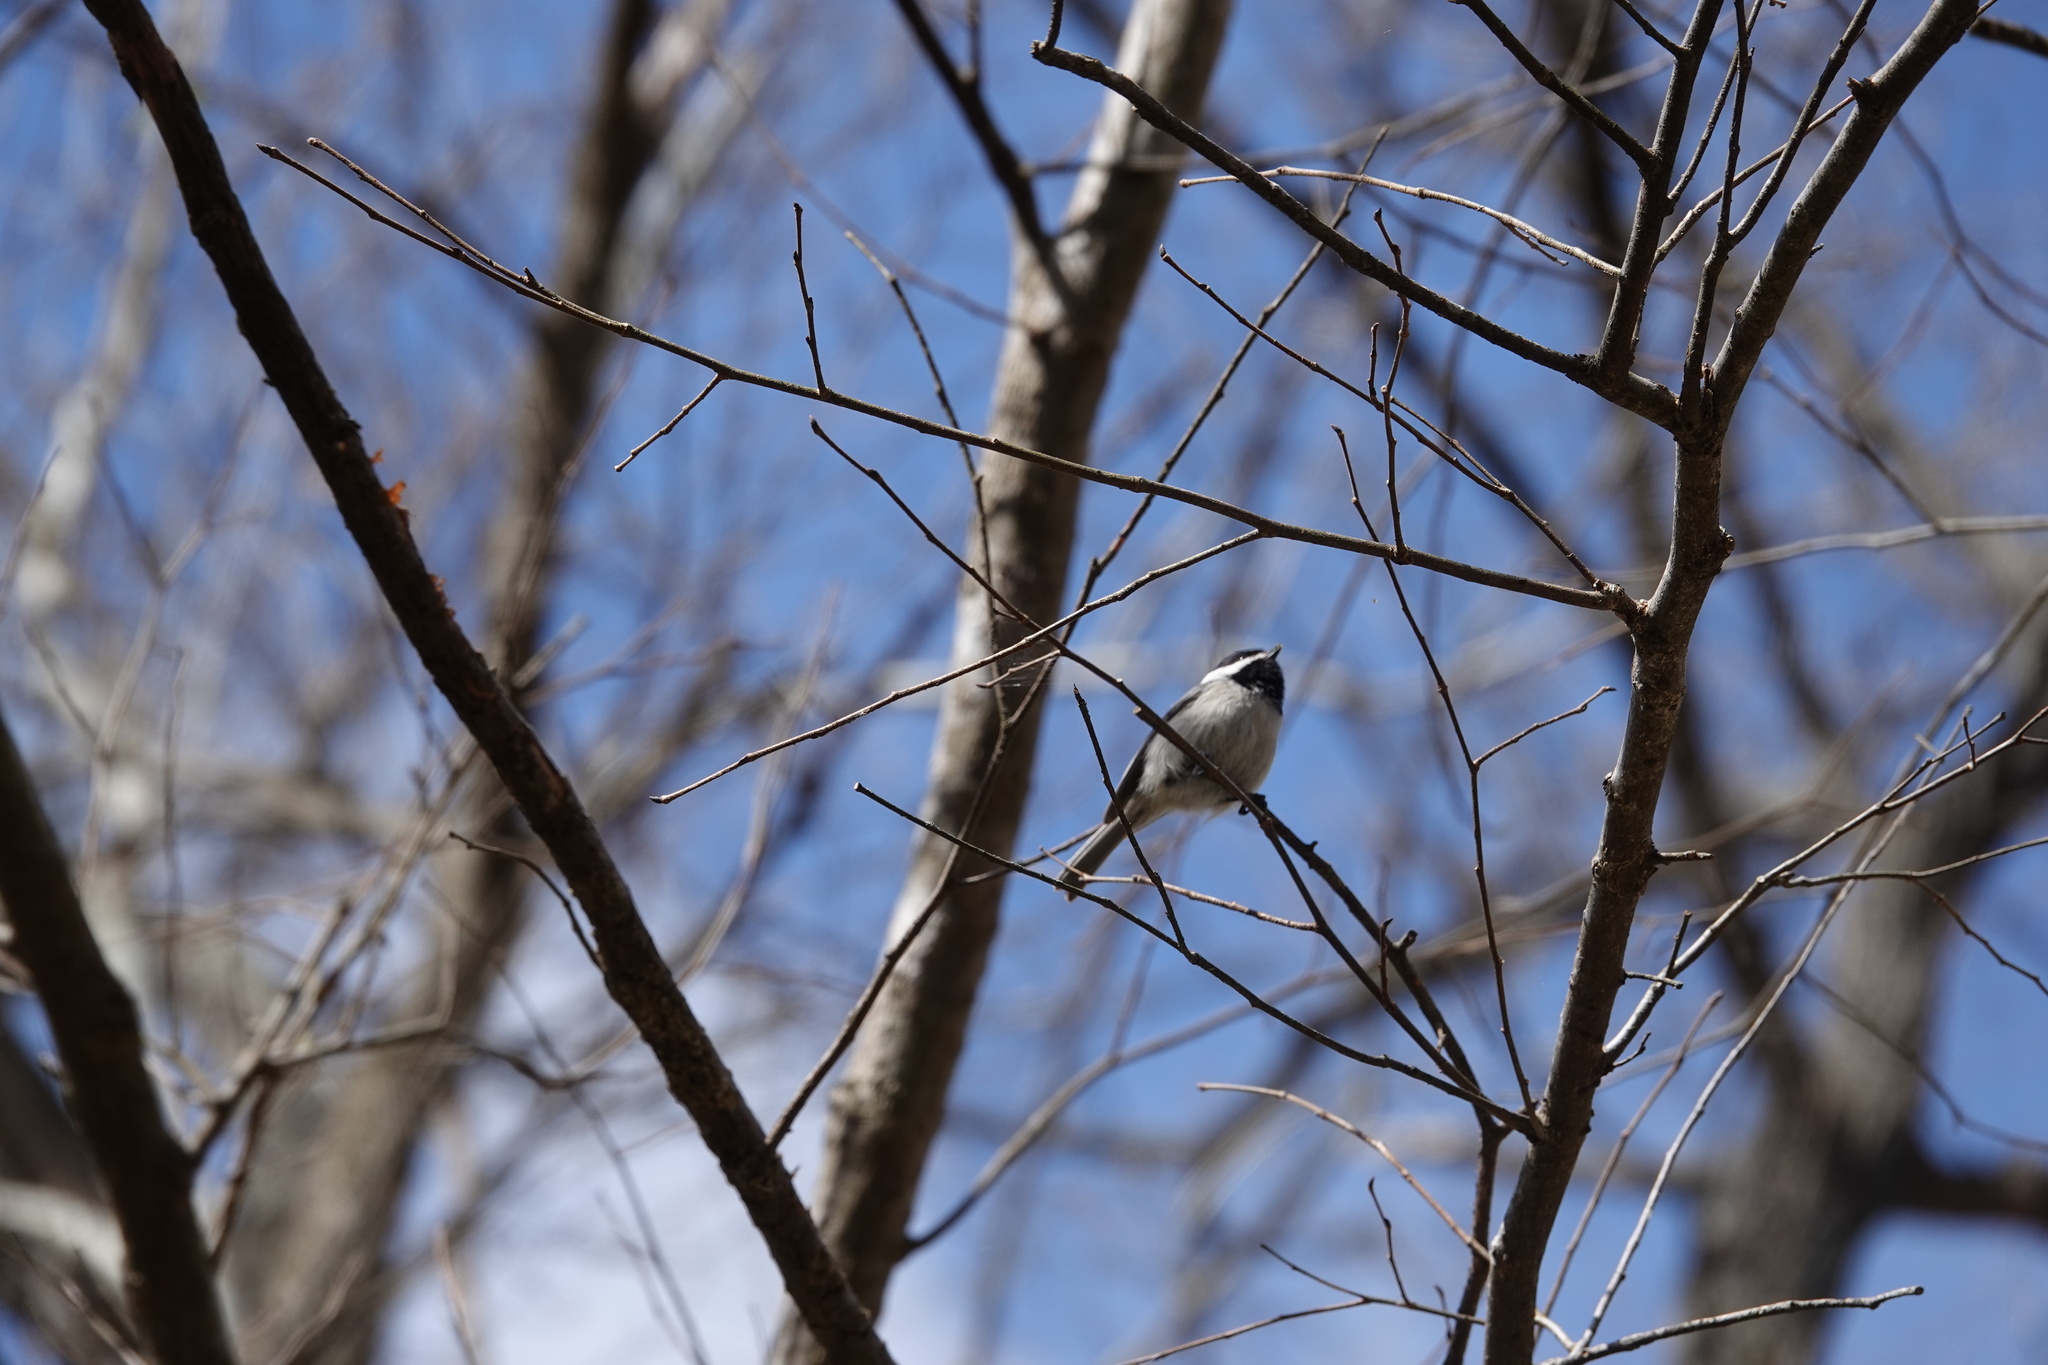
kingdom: Animalia
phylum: Chordata
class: Aves
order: Passeriformes
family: Paridae
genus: Poecile
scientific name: Poecile carolinensis
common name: Carolina chickadee
